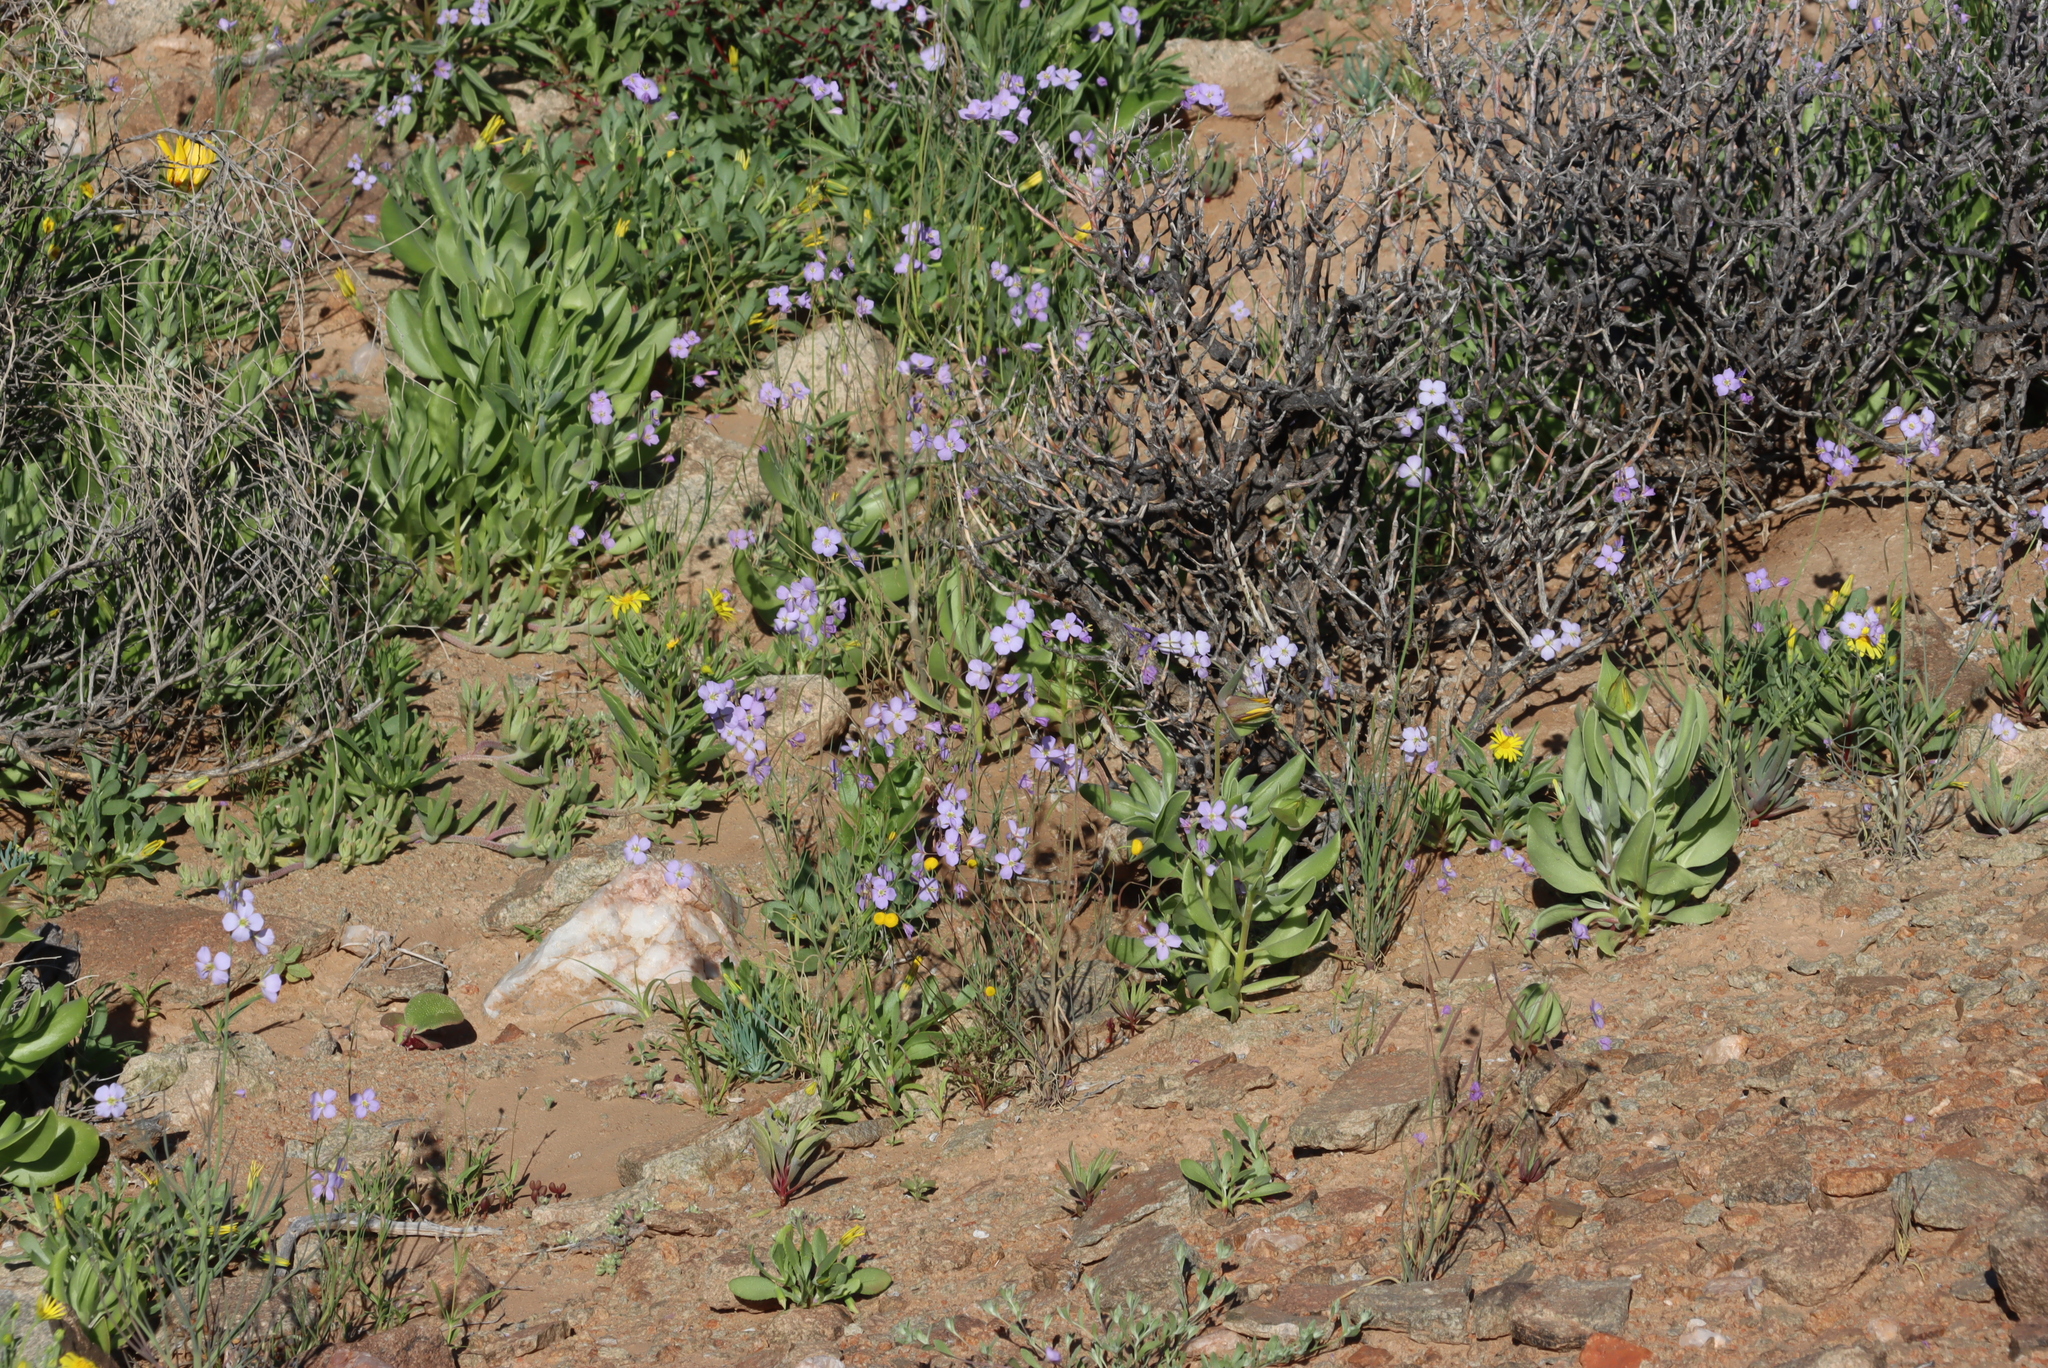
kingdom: Plantae
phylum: Tracheophyta
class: Magnoliopsida
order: Brassicales
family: Brassicaceae
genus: Heliophila
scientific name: Heliophila trifurca
